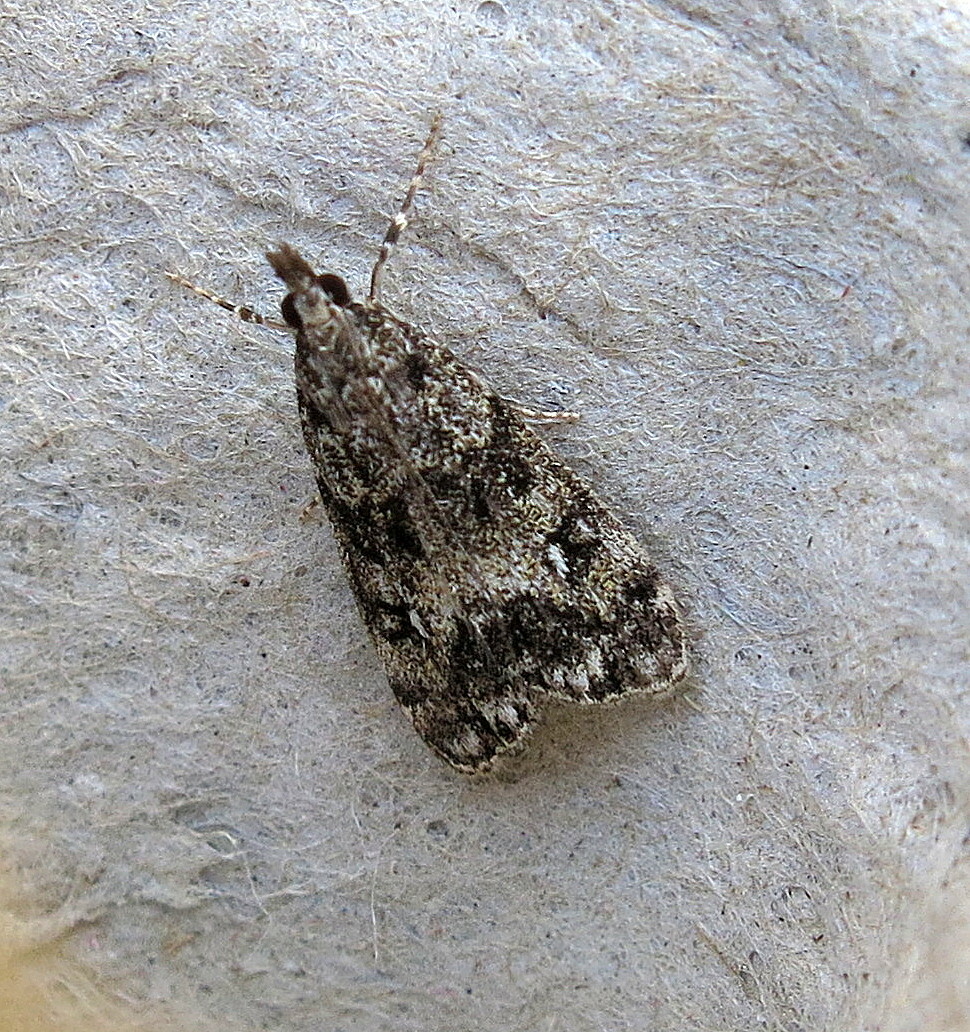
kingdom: Animalia
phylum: Arthropoda
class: Insecta
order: Lepidoptera
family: Crambidae
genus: Eudonia
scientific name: Eudonia lacustrata
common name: Little grey
